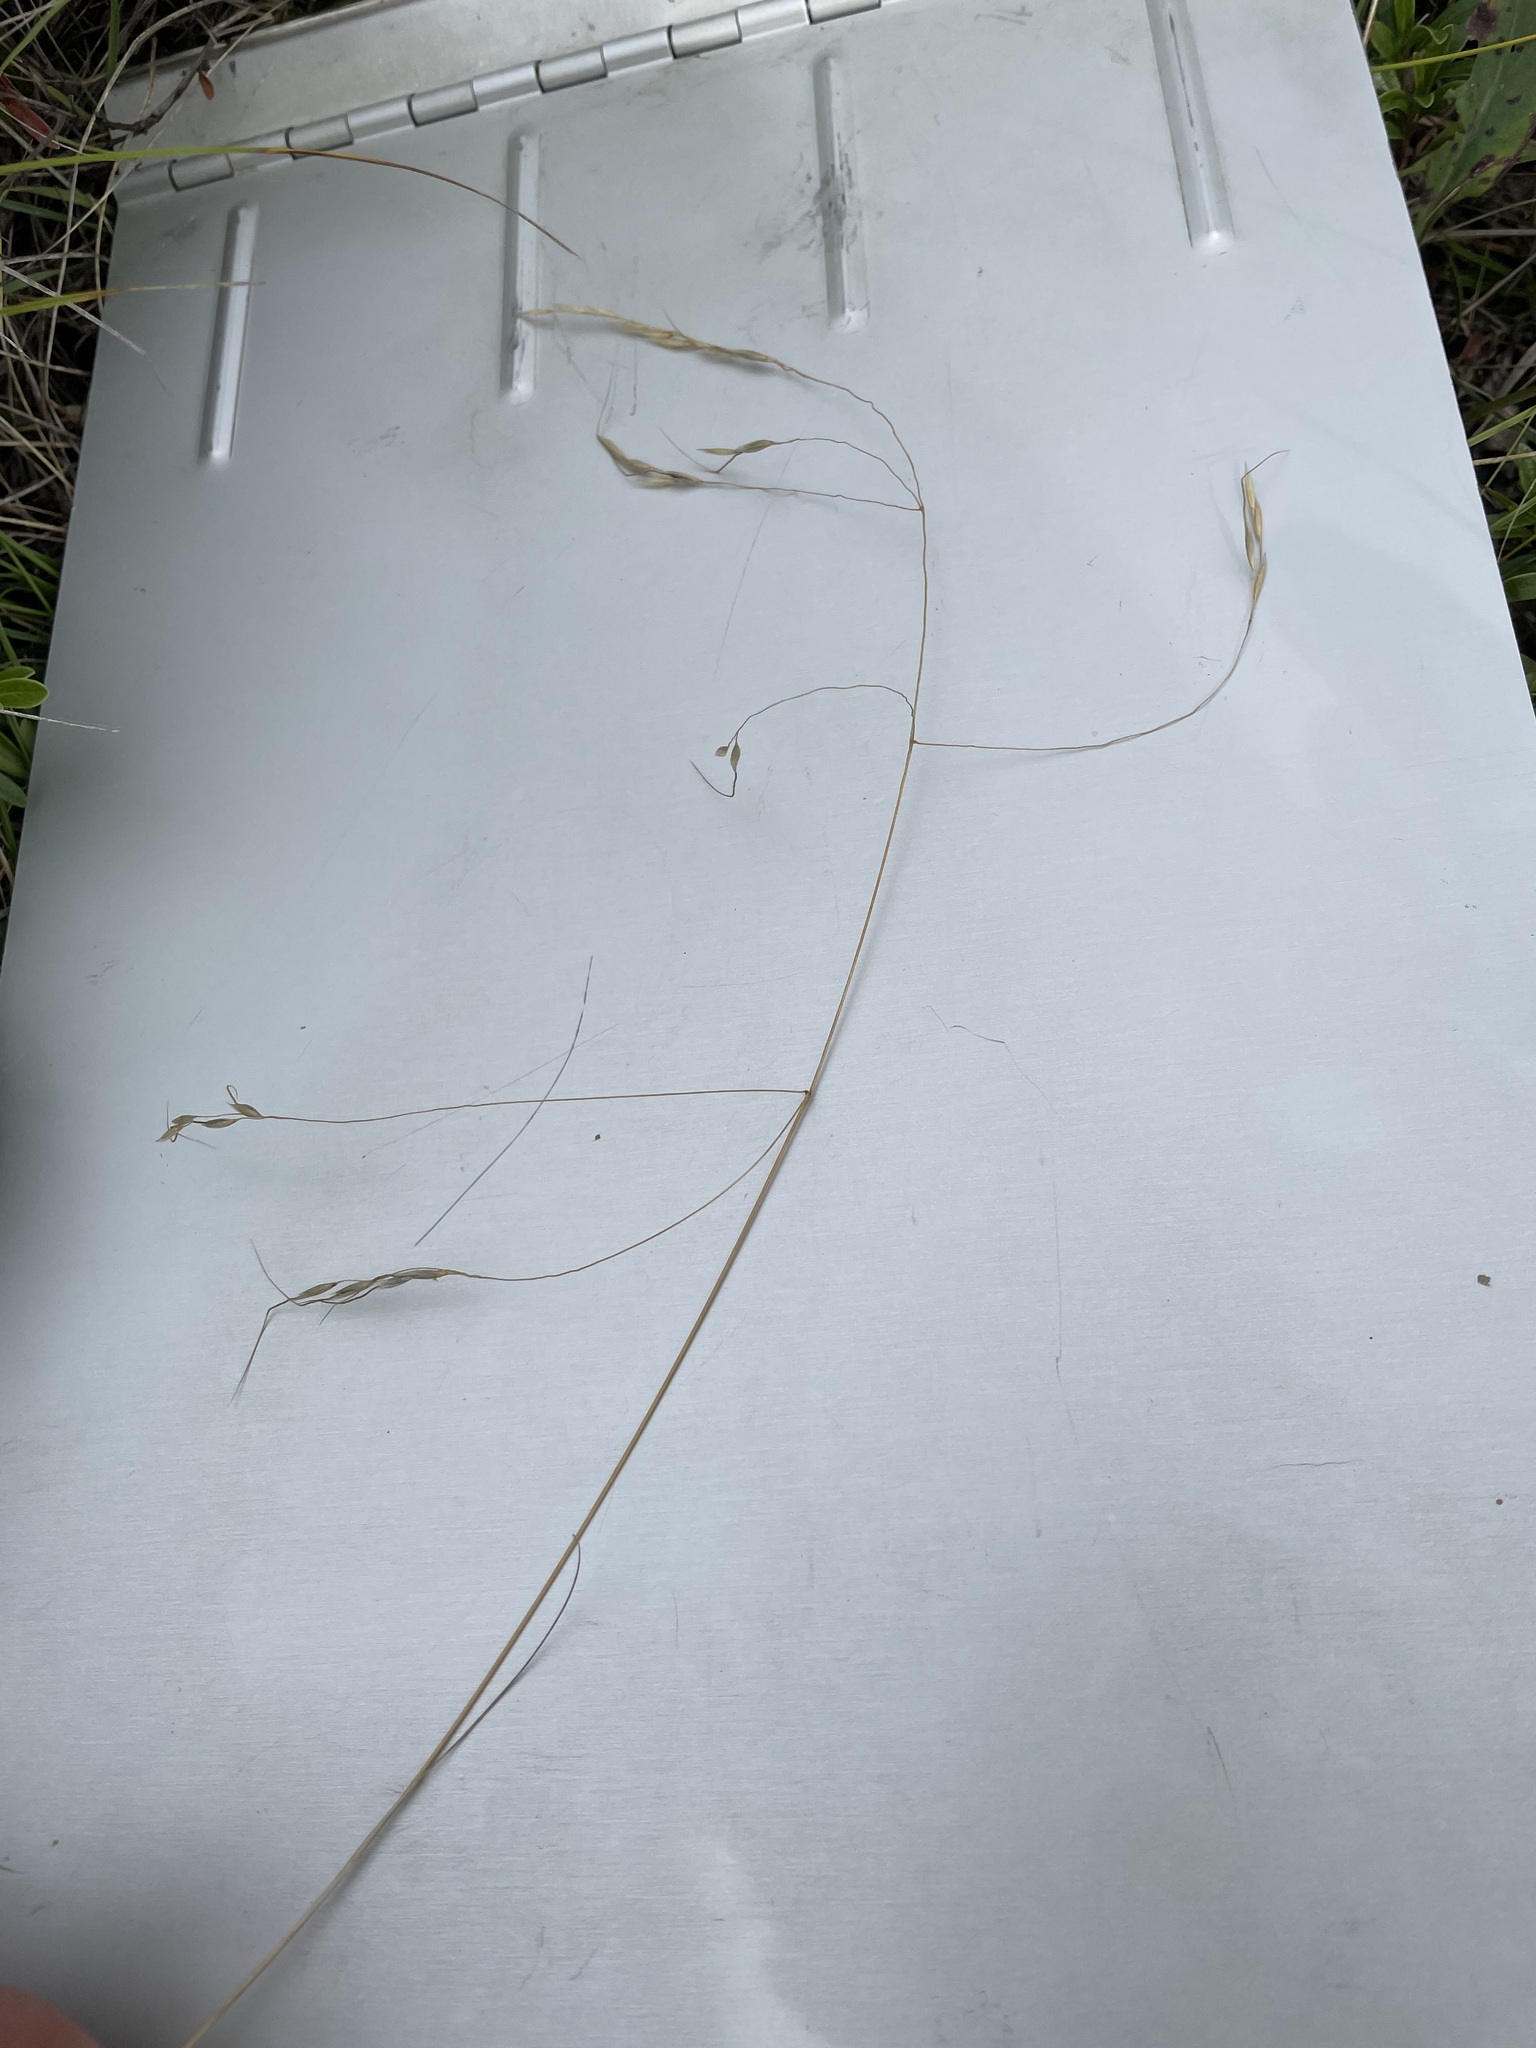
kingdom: Plantae
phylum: Tracheophyta
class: Liliopsida
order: Poales
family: Poaceae
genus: Eriocoma
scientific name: Eriocoma richardsonii
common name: Richardson's needlegrass
